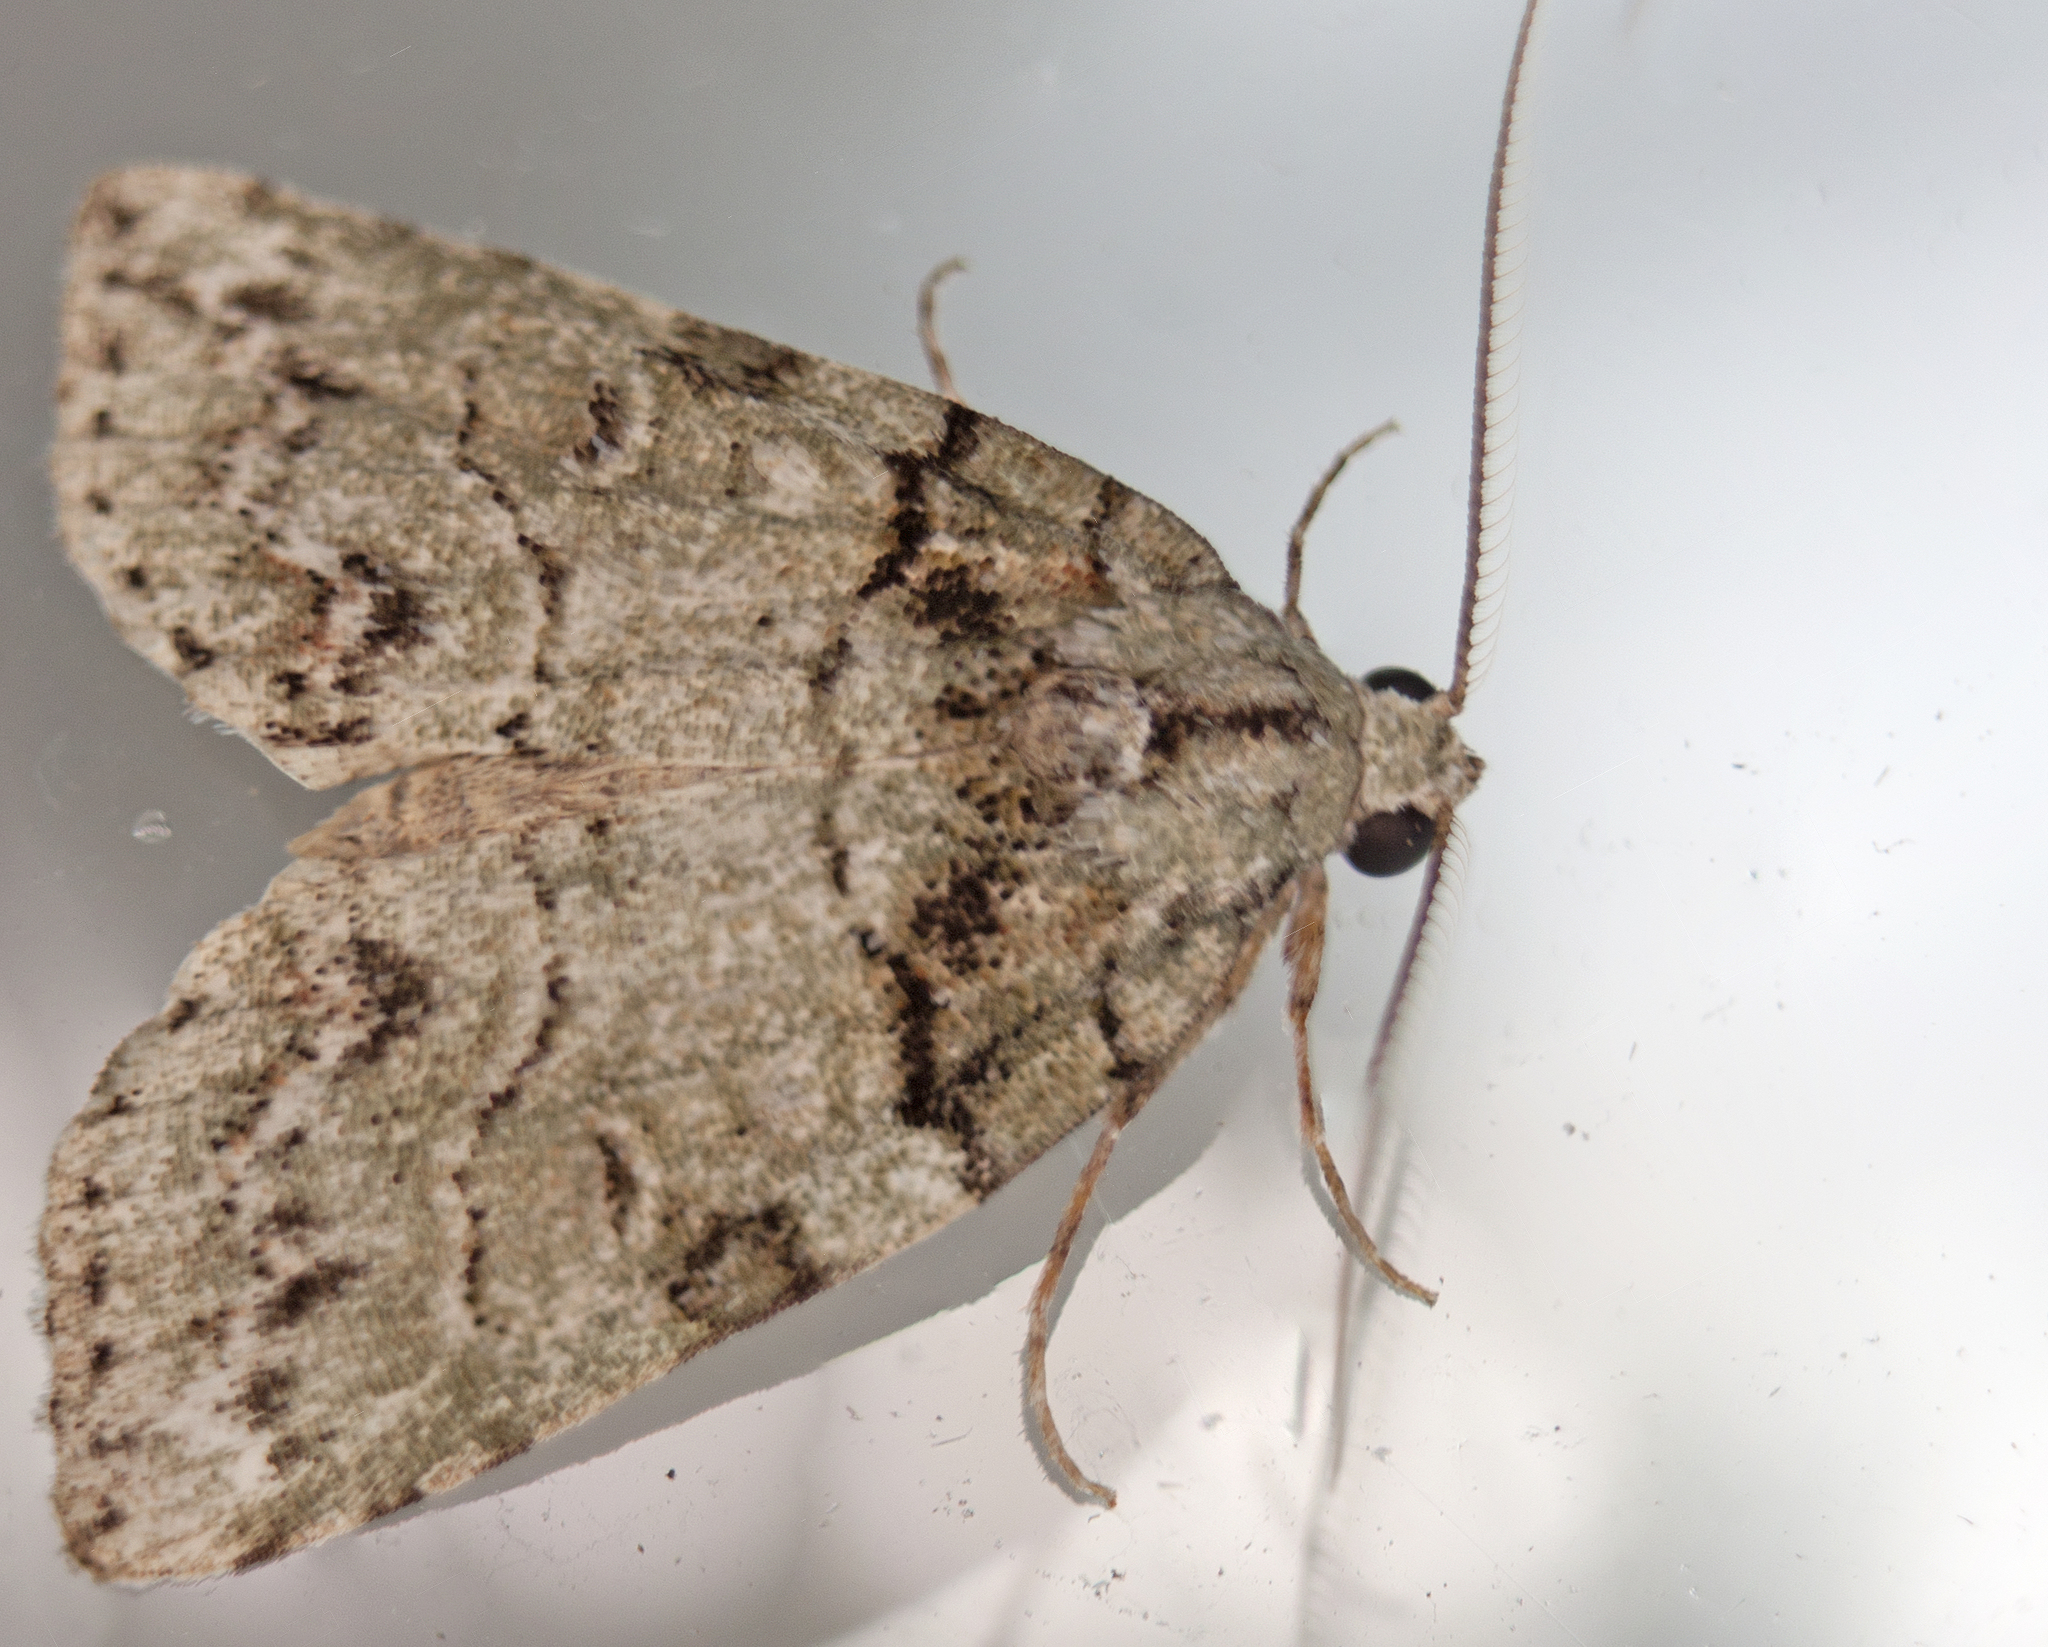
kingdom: Animalia
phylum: Arthropoda
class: Insecta
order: Lepidoptera
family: Nolidae
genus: Calathusa
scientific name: Calathusa mesospila
